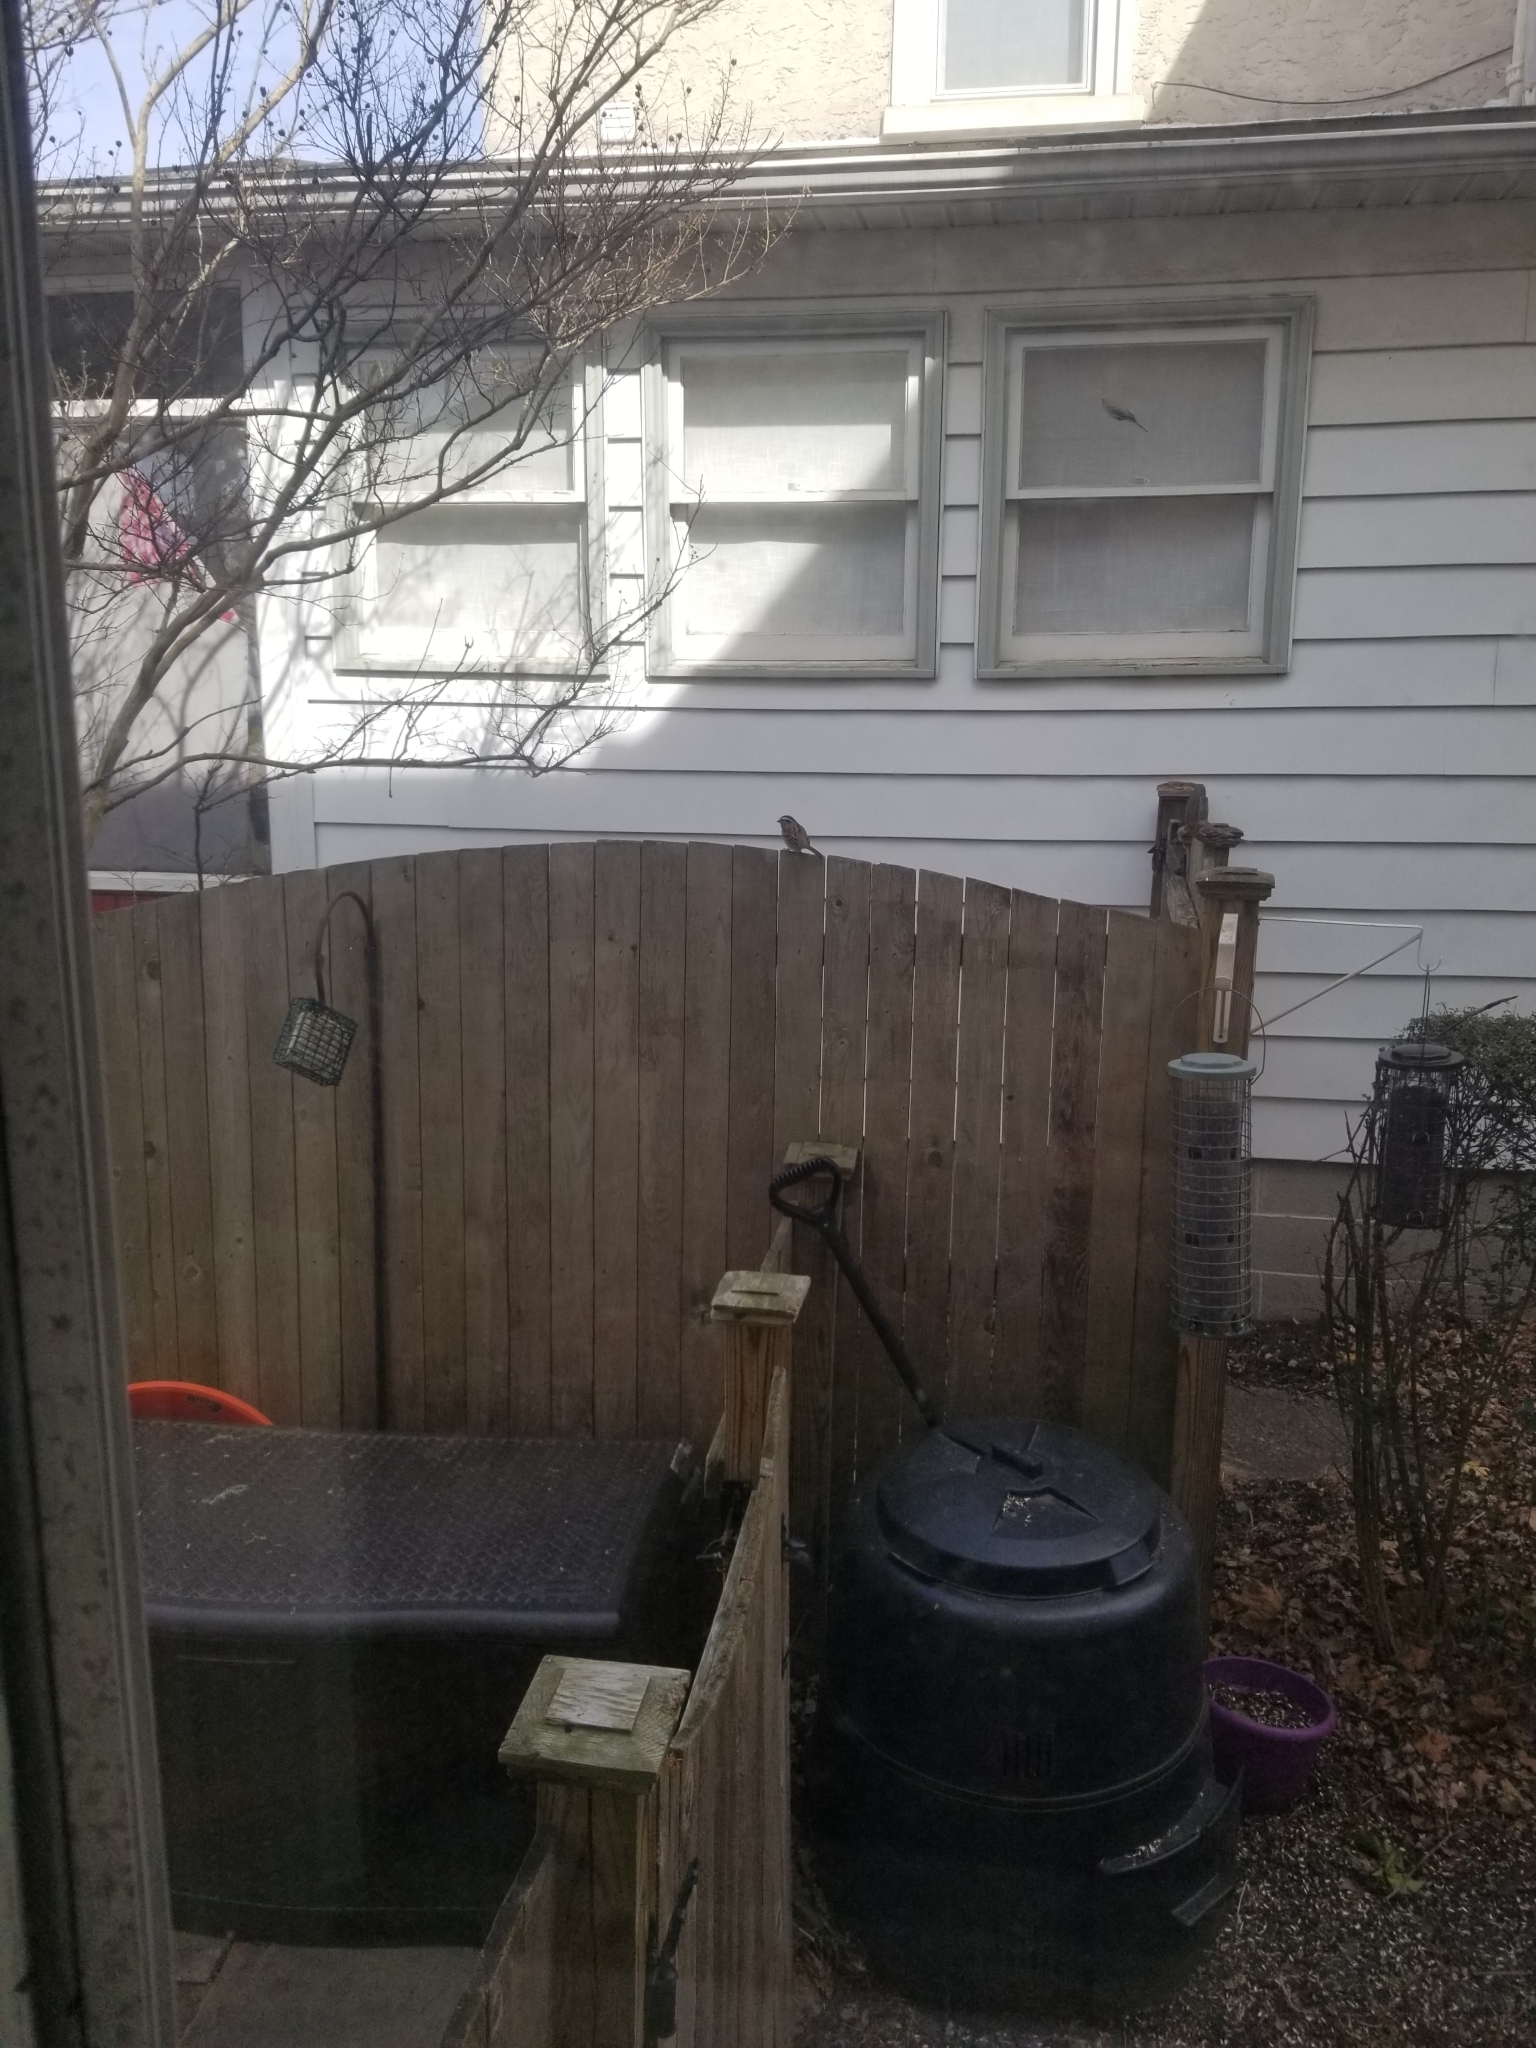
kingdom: Animalia
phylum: Chordata
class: Aves
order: Passeriformes
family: Passerellidae
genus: Zonotrichia
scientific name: Zonotrichia albicollis
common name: White-throated sparrow
